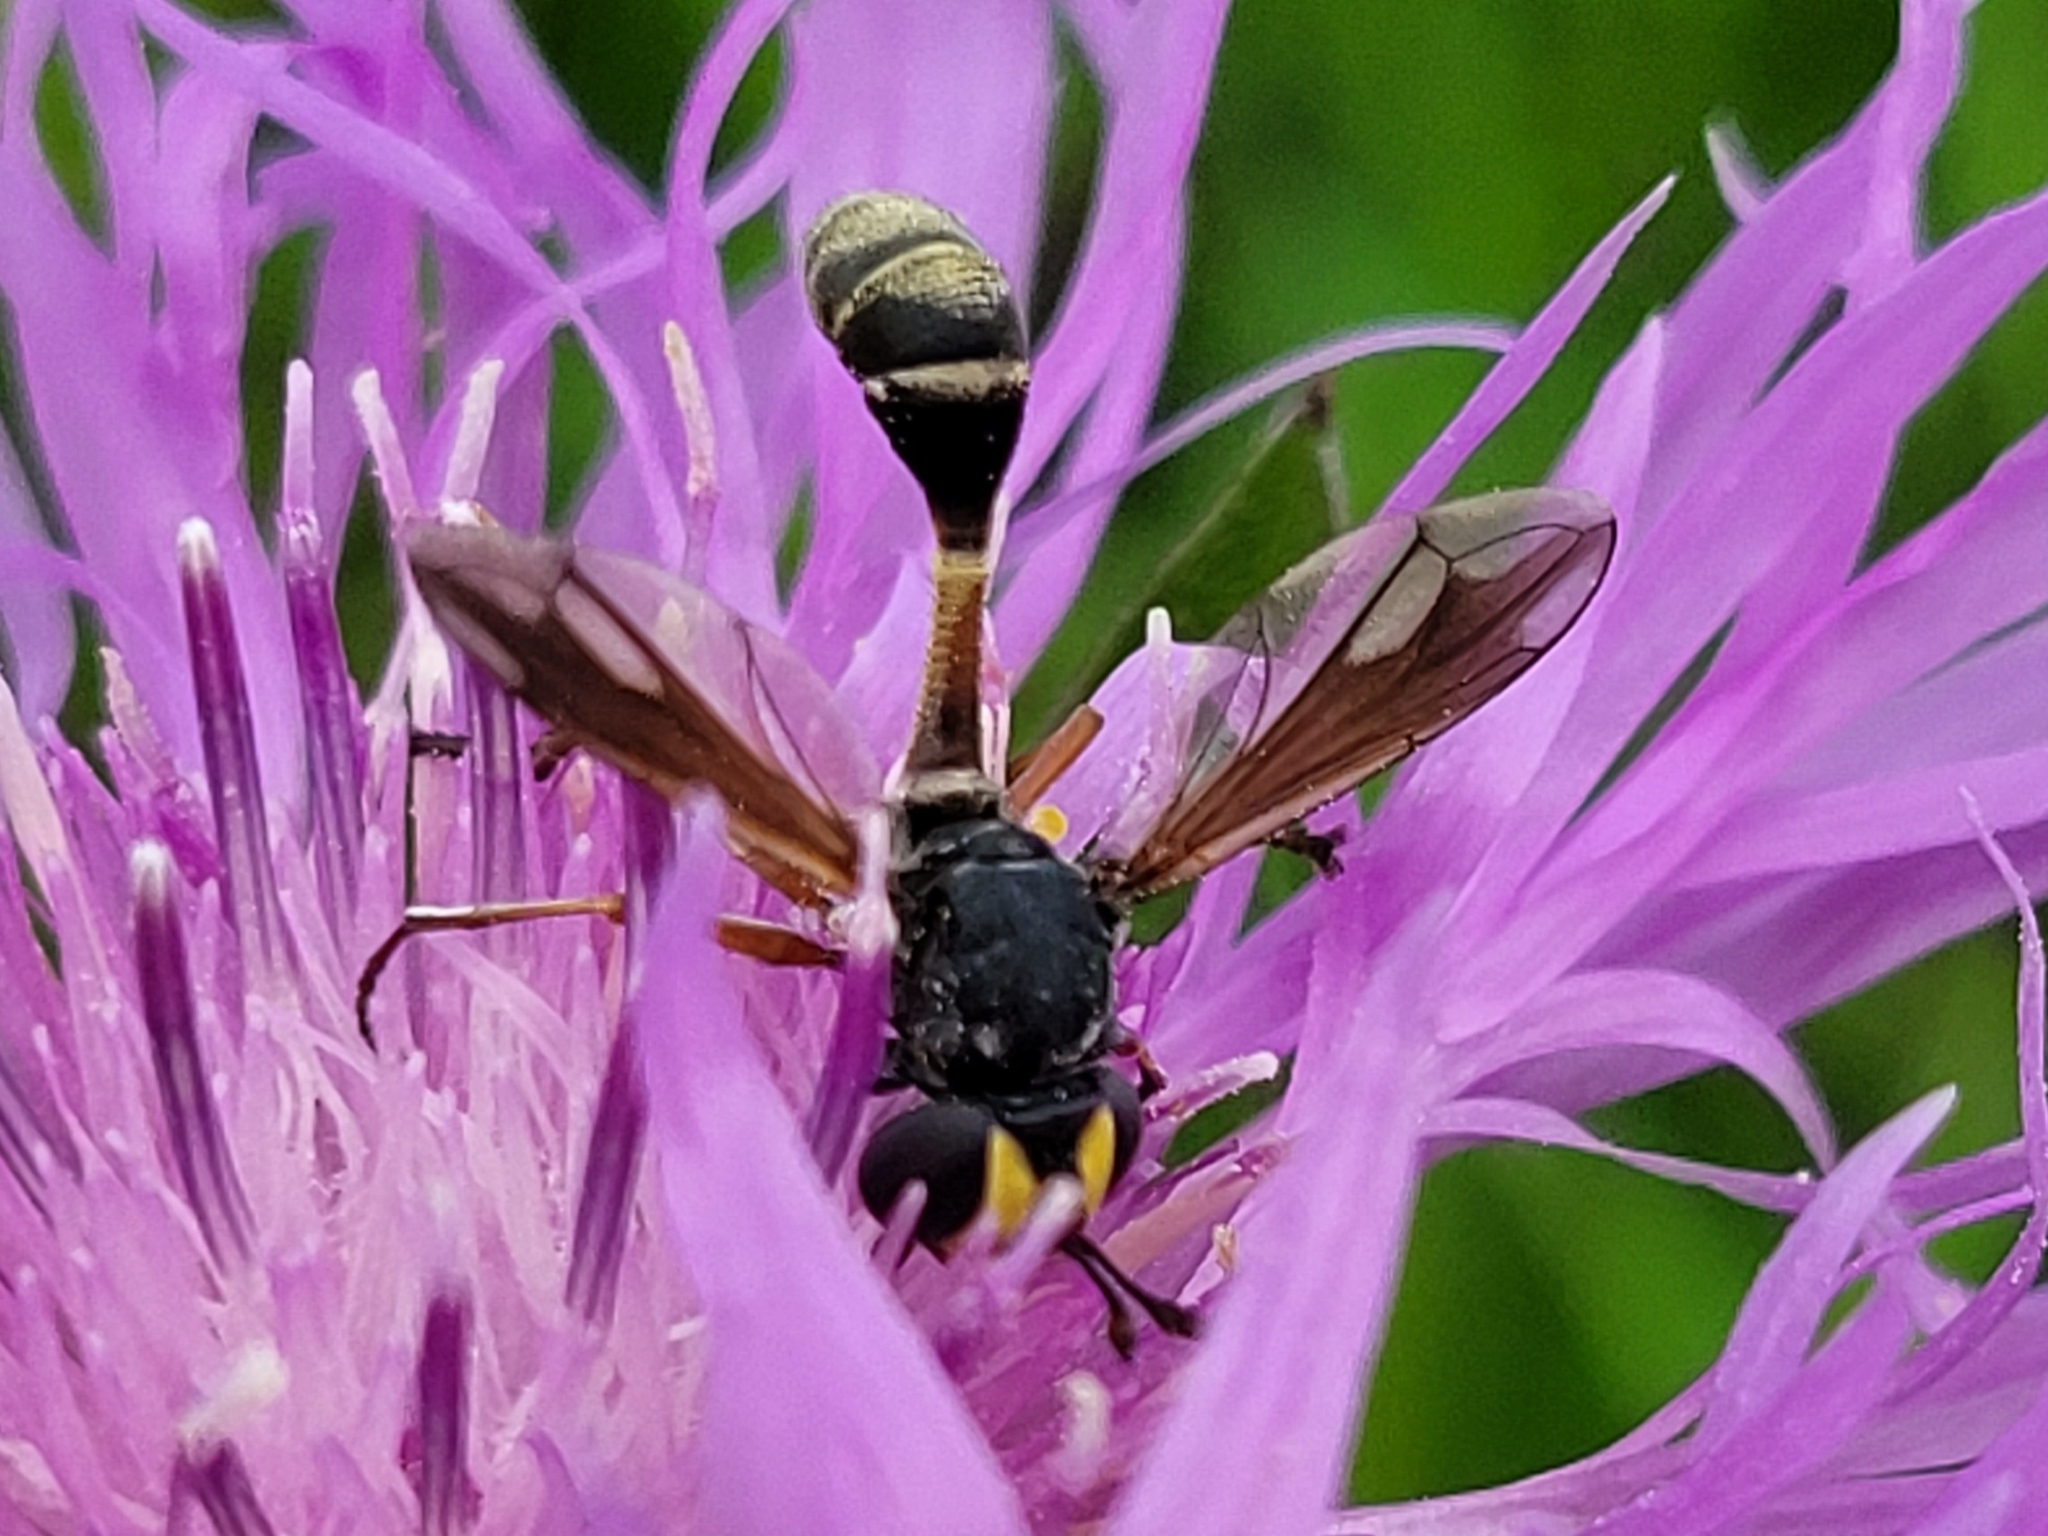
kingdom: Animalia
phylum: Arthropoda
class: Insecta
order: Diptera
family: Conopidae
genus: Physocephala
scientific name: Physocephala rufipes
